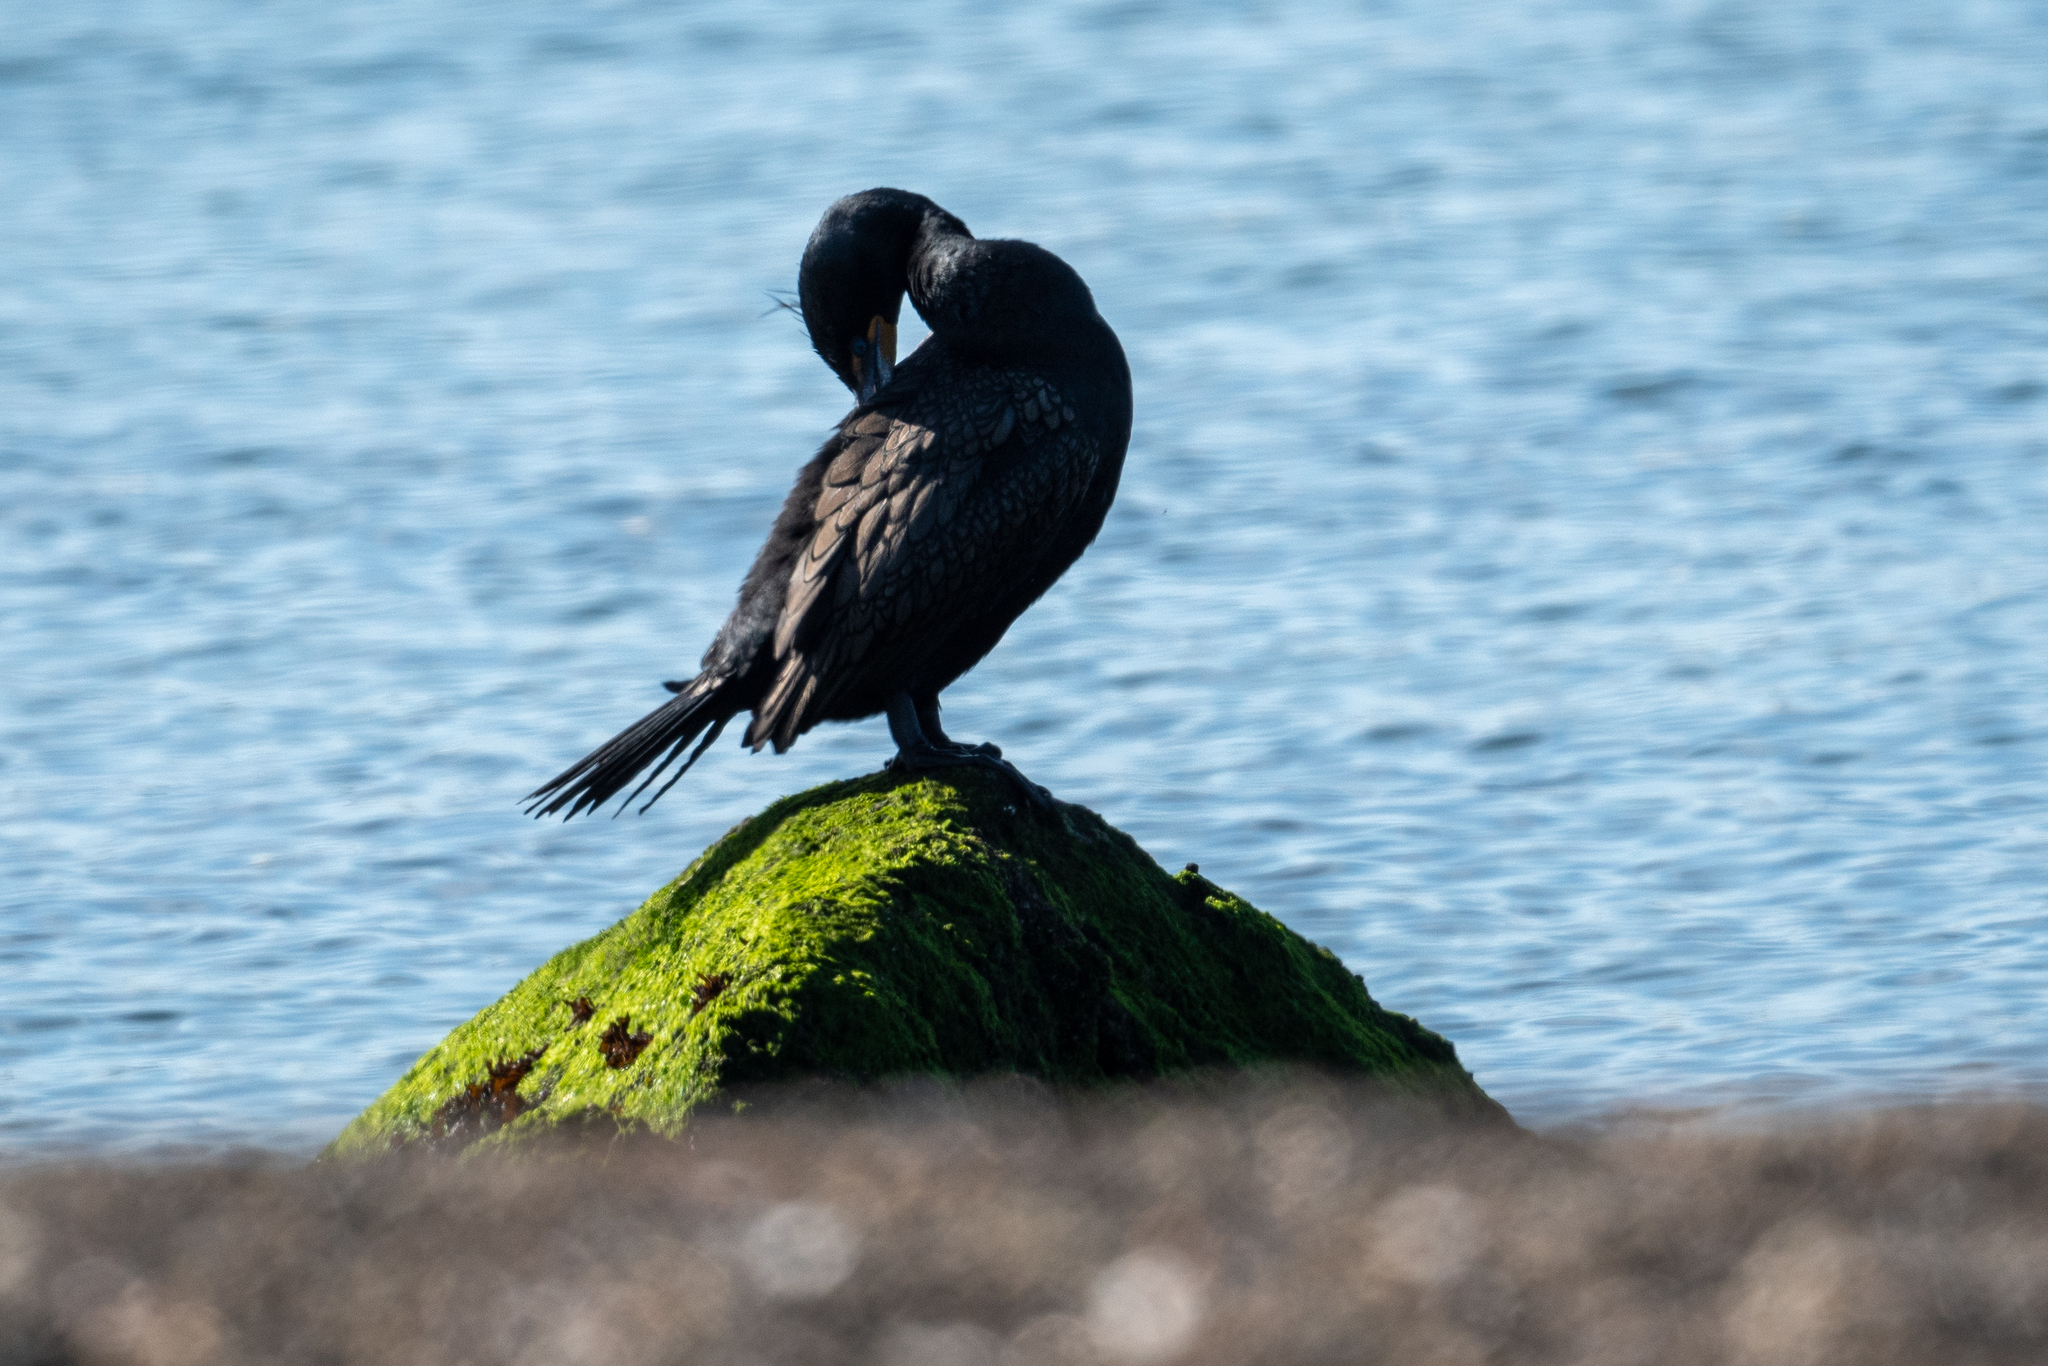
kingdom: Animalia
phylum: Chordata
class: Aves
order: Suliformes
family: Phalacrocoracidae
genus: Phalacrocorax
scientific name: Phalacrocorax auritus
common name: Double-crested cormorant
